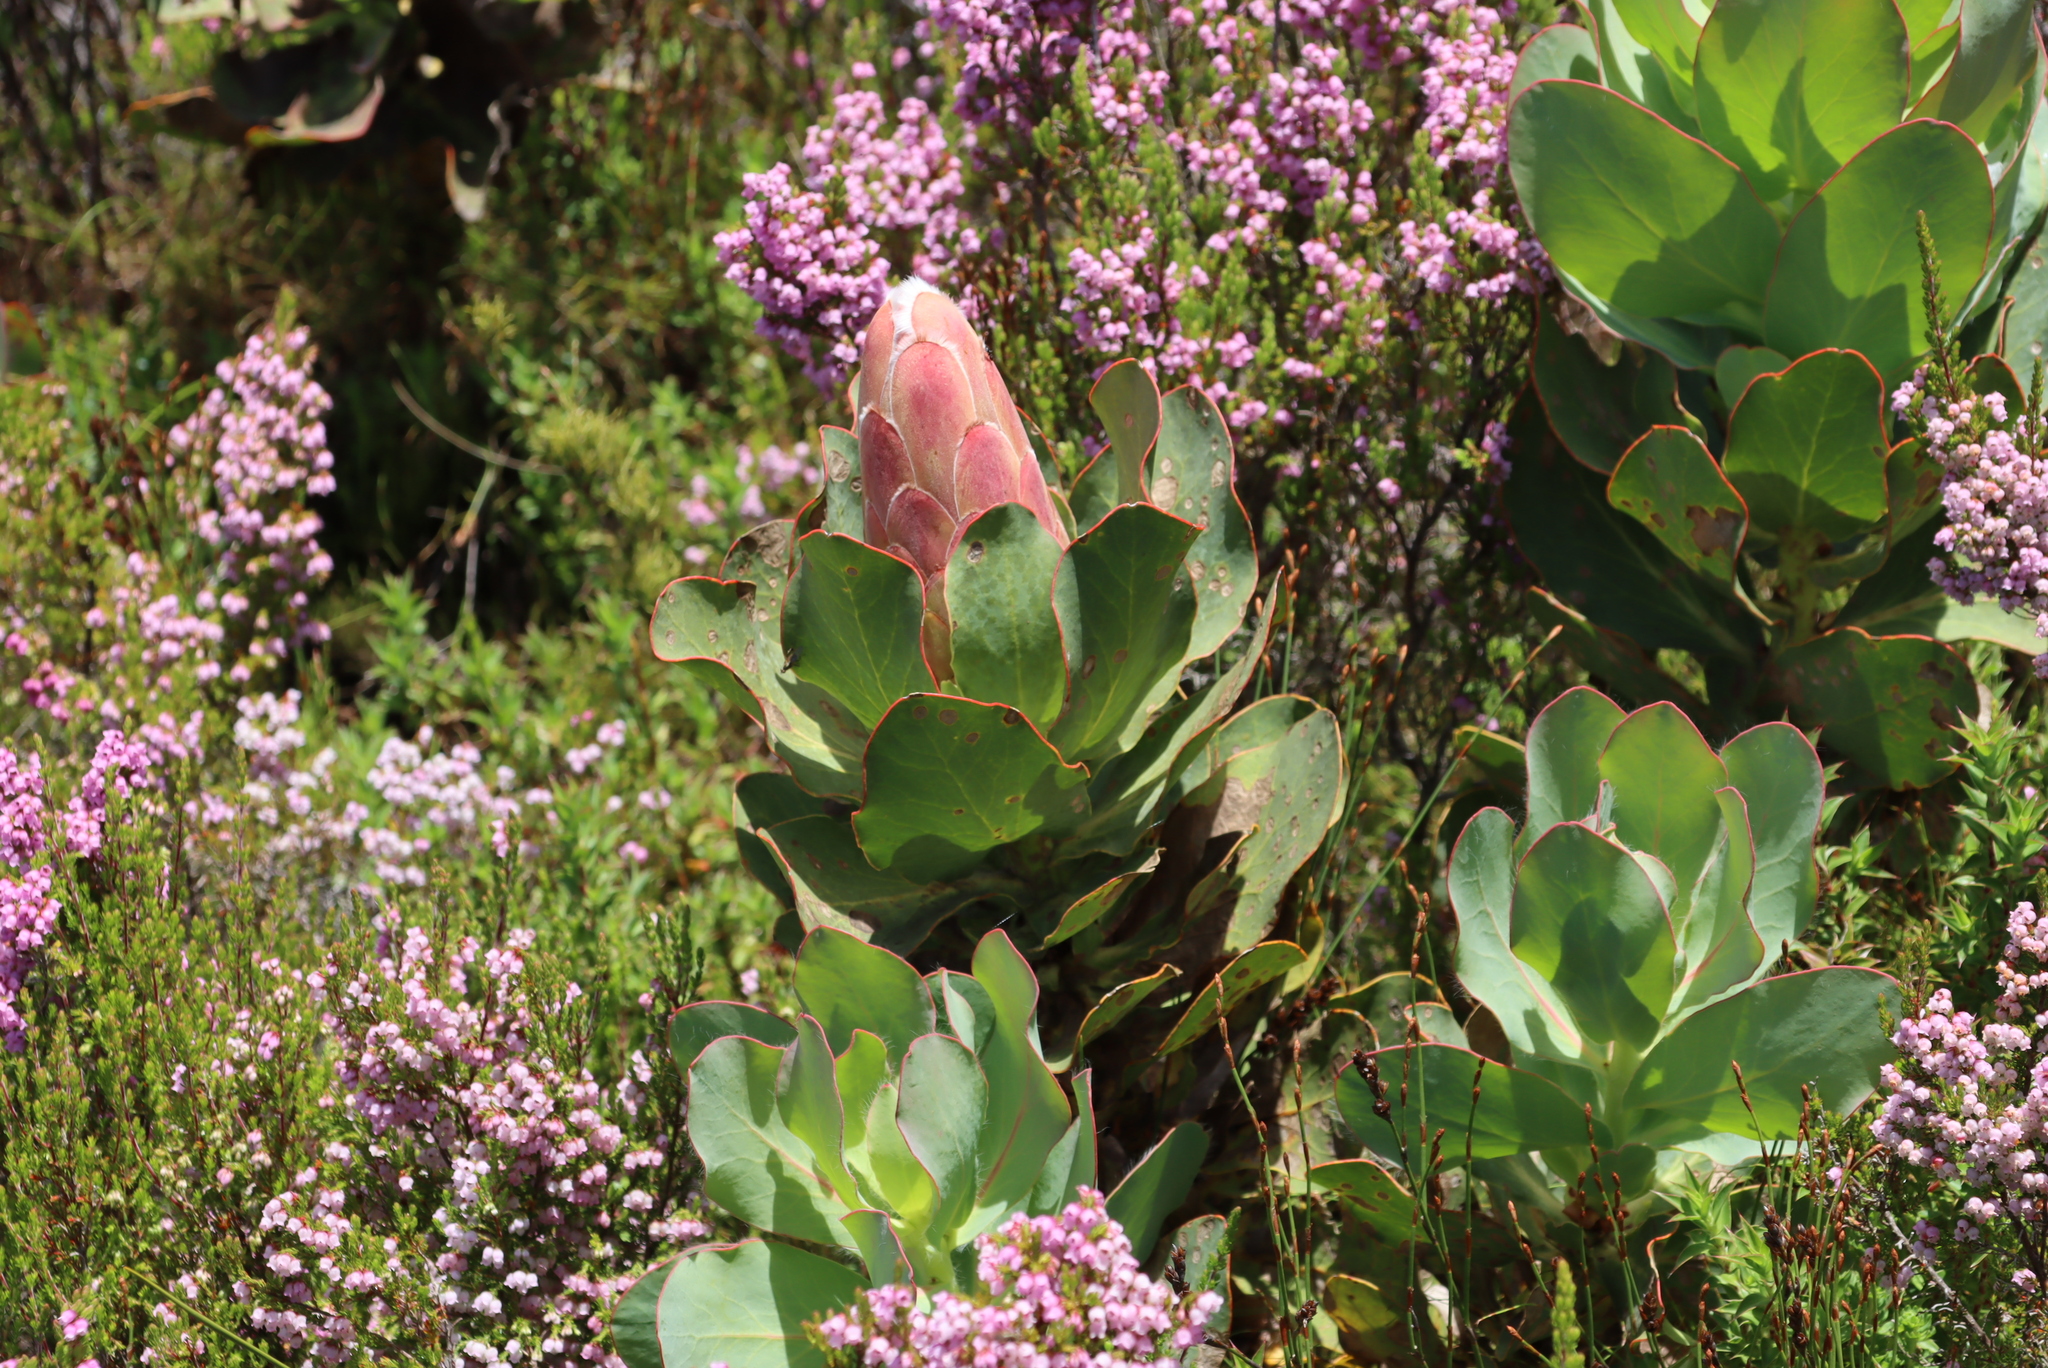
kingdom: Plantae
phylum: Tracheophyta
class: Magnoliopsida
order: Proteales
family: Proteaceae
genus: Protea
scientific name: Protea grandiceps
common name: Red sugarbush
